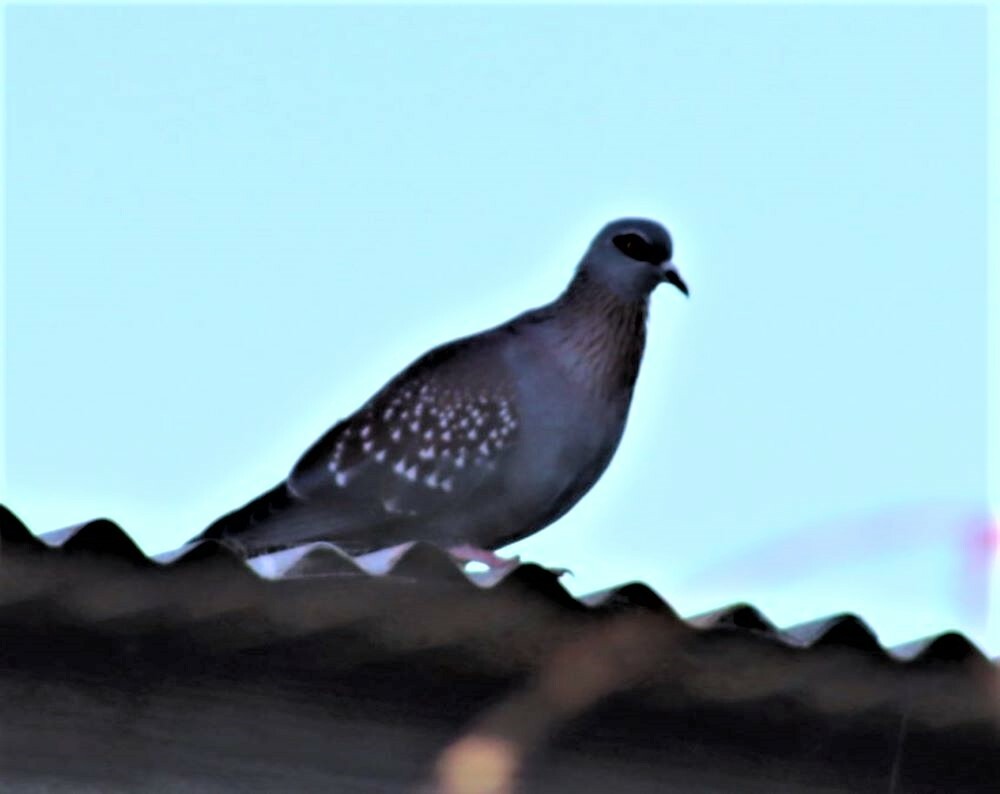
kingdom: Animalia
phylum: Chordata
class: Aves
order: Columbiformes
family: Columbidae
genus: Columba
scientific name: Columba guinea
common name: Speckled pigeon
